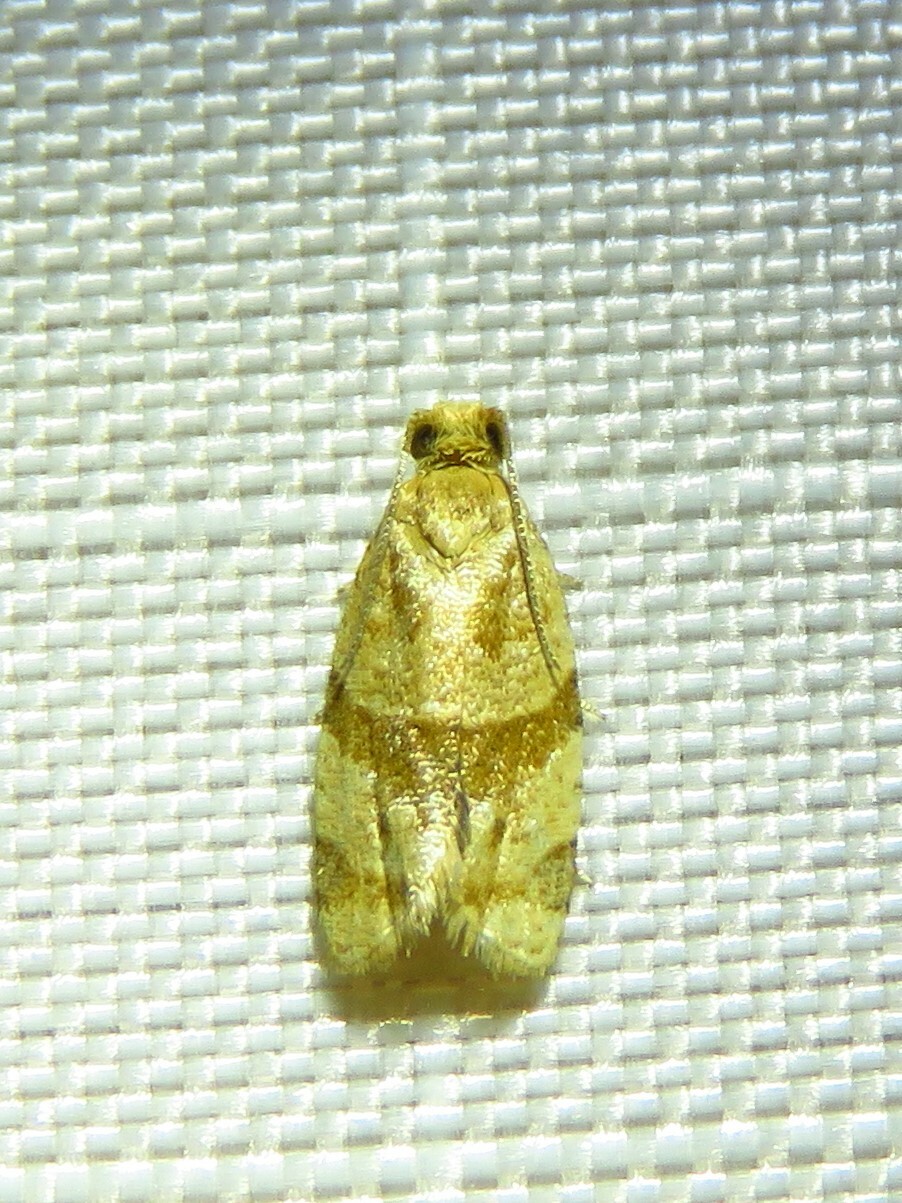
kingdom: Animalia
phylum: Arthropoda
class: Insecta
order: Lepidoptera
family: Tortricidae
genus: Clepsis
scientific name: Clepsis peritana
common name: Garden tortrix
